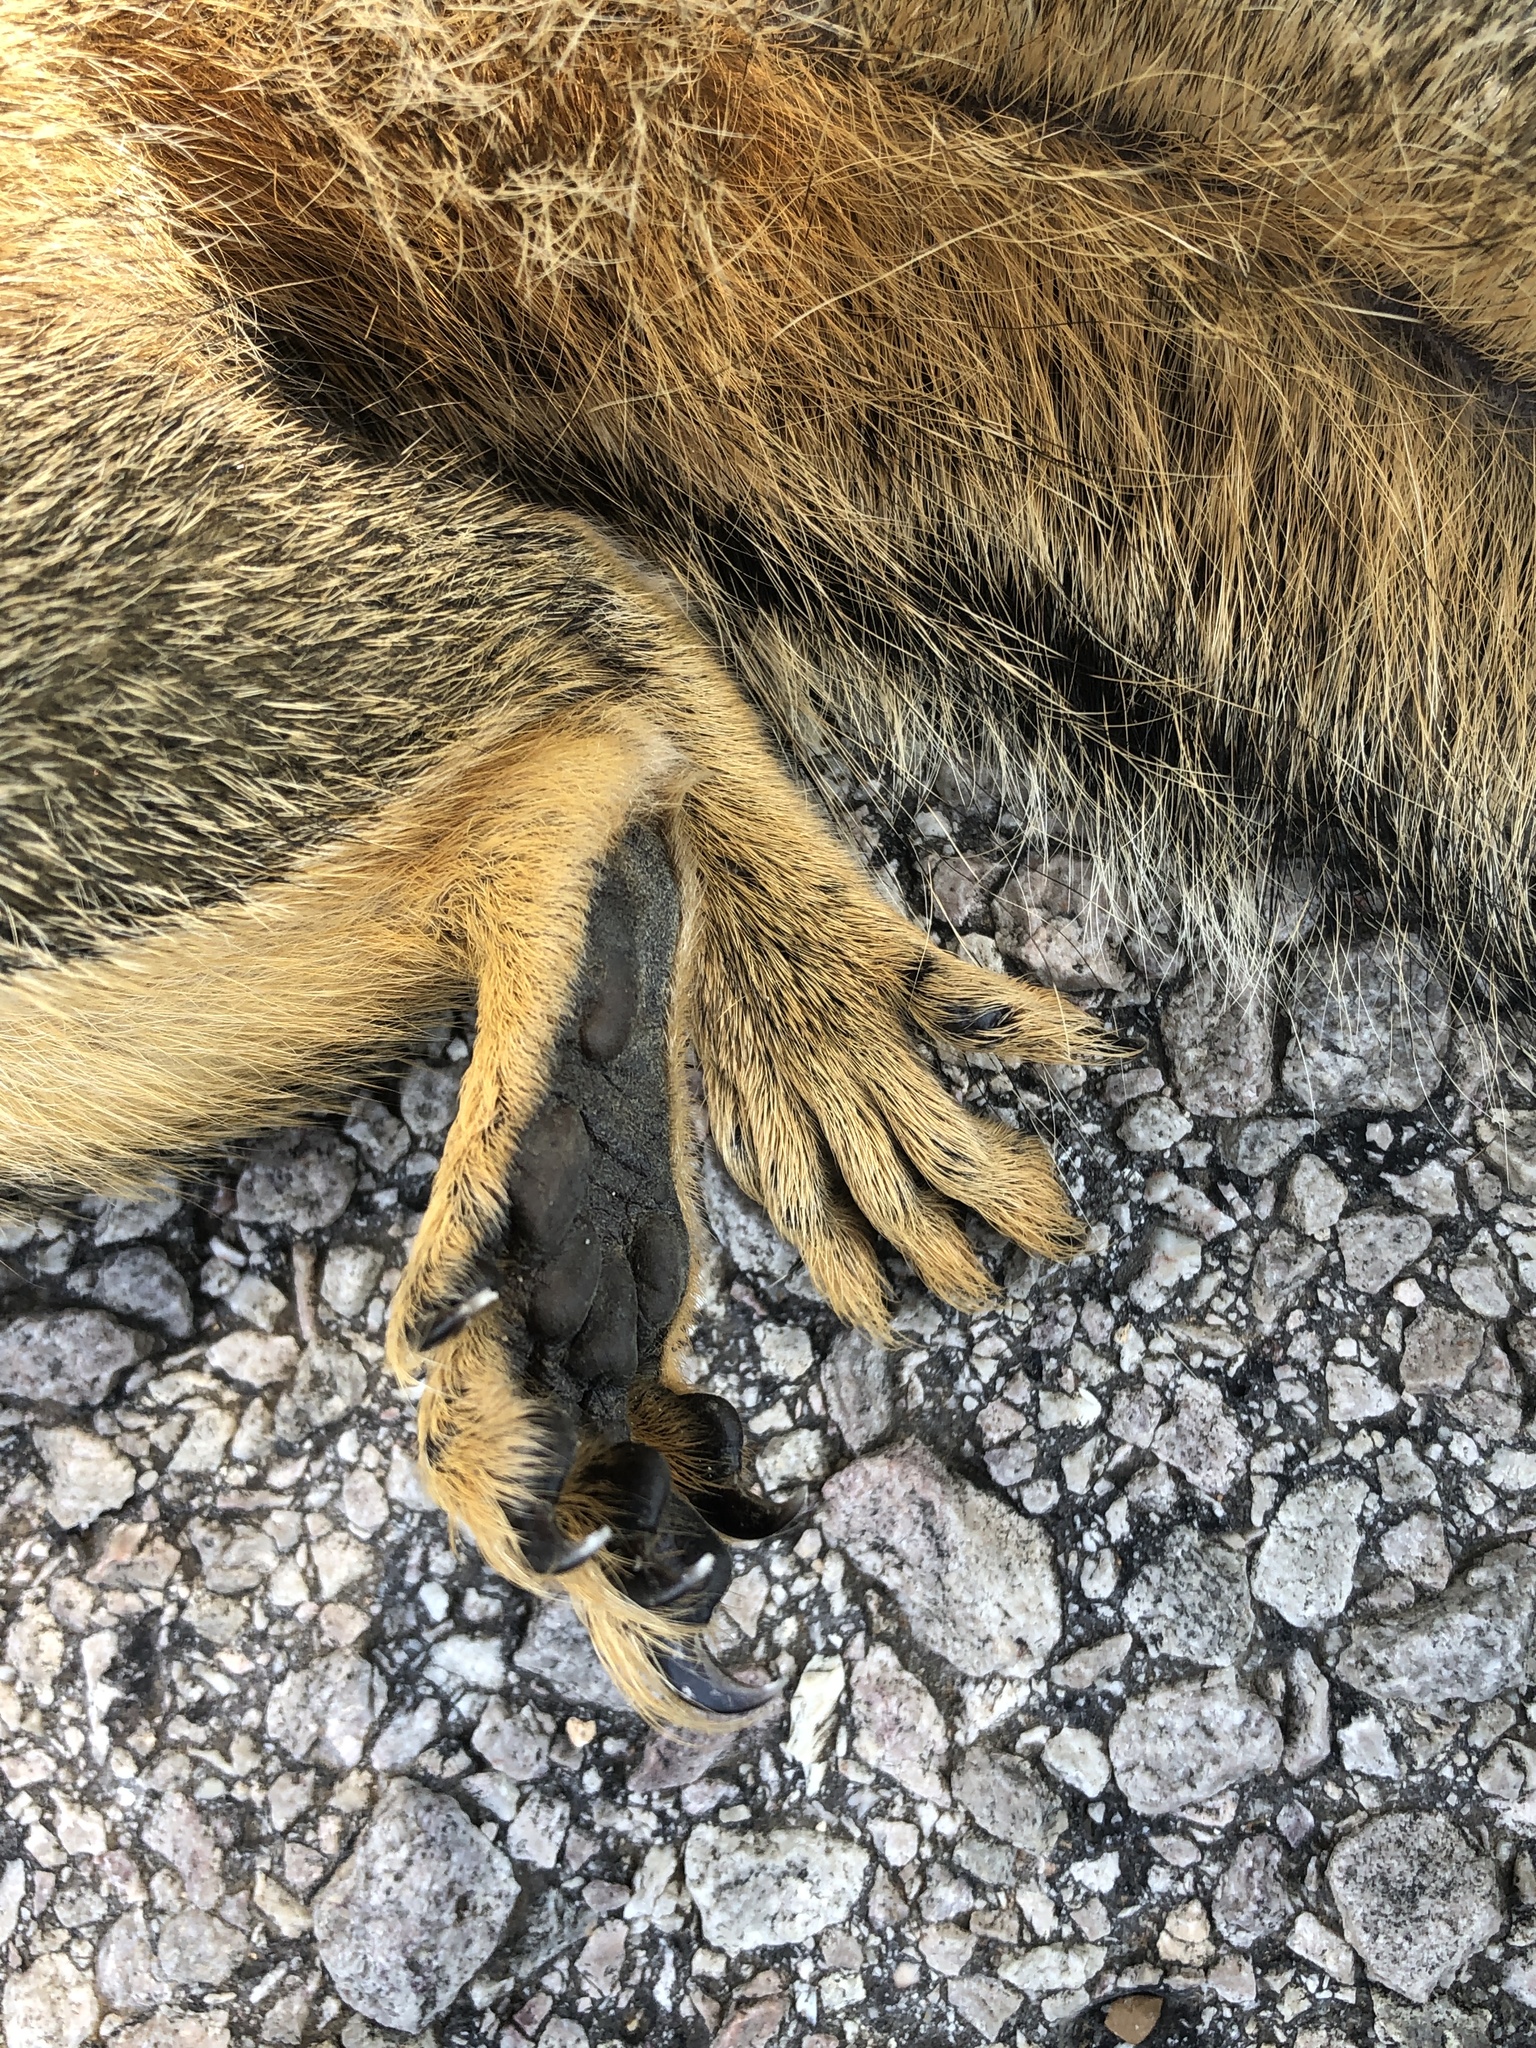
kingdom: Animalia
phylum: Chordata
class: Mammalia
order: Rodentia
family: Sciuridae
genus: Sciurus
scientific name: Sciurus niger
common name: Fox squirrel
